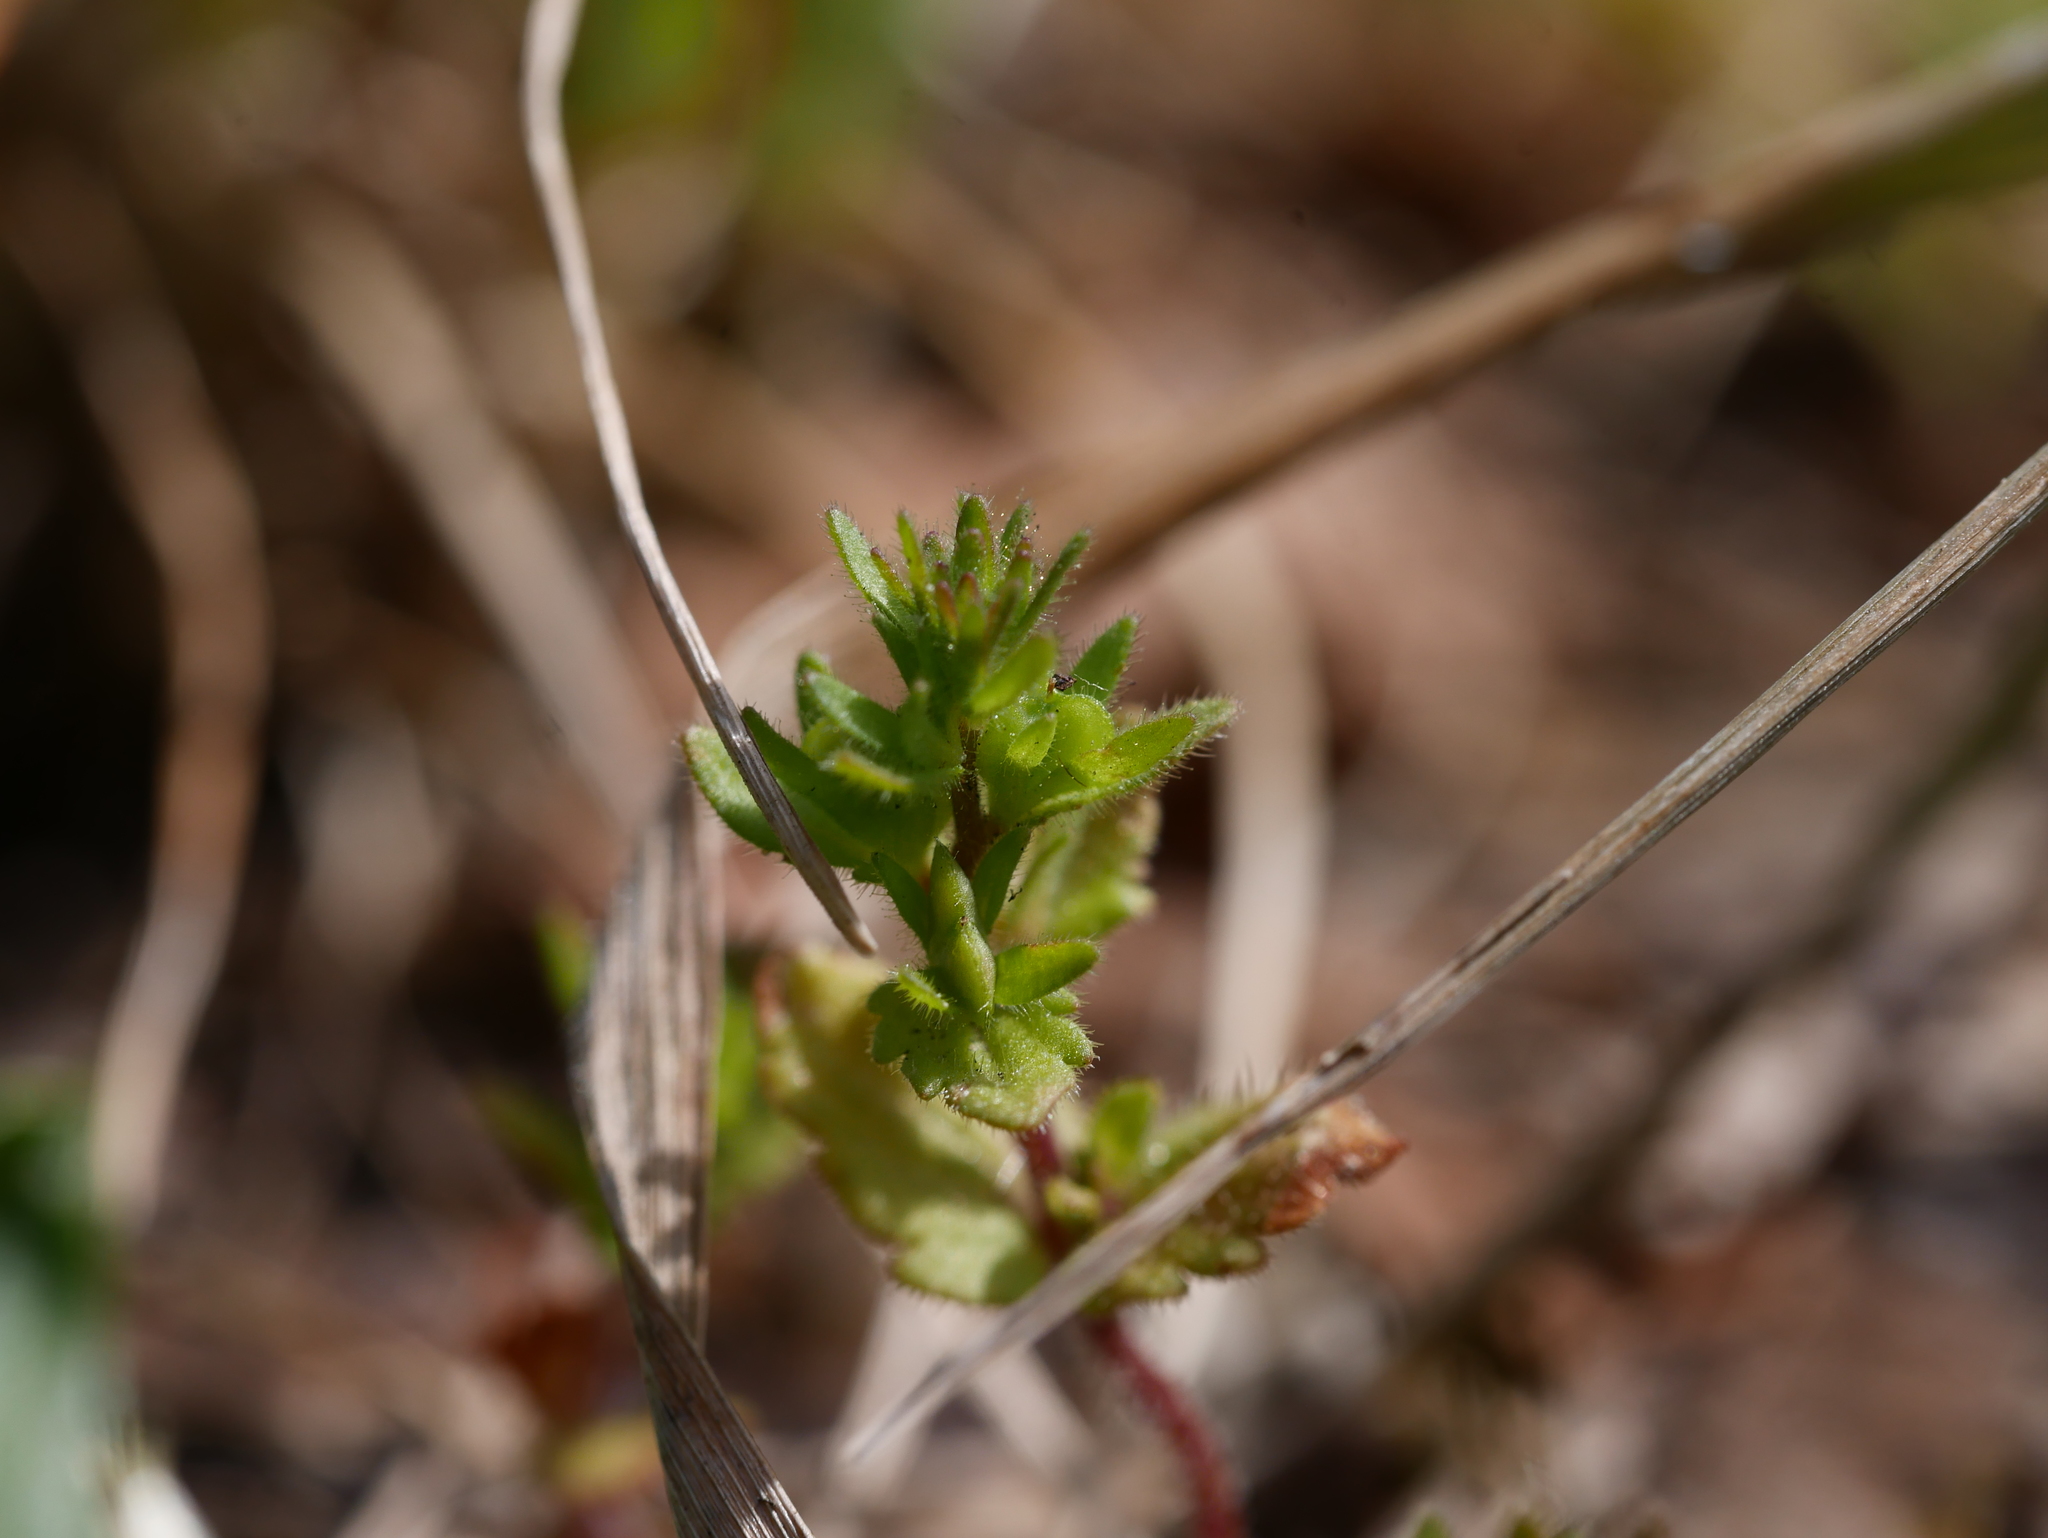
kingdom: Plantae
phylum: Tracheophyta
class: Magnoliopsida
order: Lamiales
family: Plantaginaceae
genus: Veronica
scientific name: Veronica arvensis
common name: Corn speedwell
